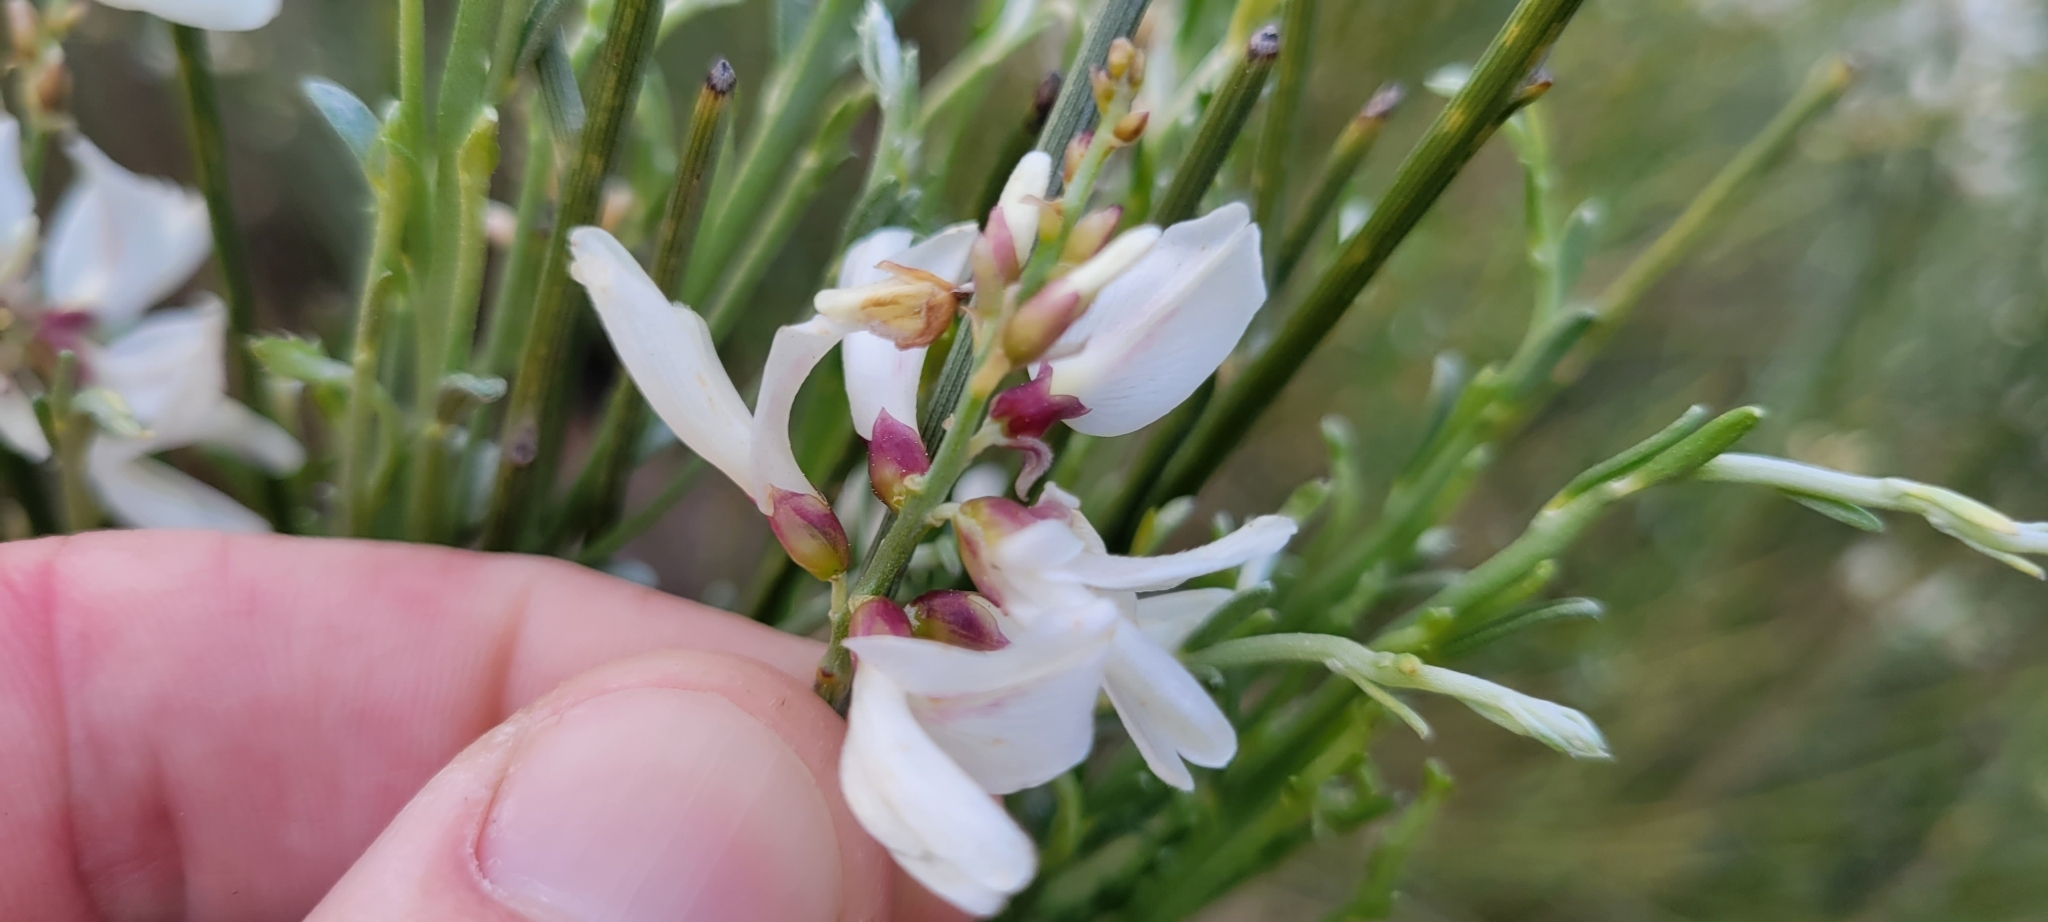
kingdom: Plantae
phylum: Tracheophyta
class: Magnoliopsida
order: Fabales
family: Fabaceae
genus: Retama
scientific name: Retama monosperma
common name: Bridal broom
